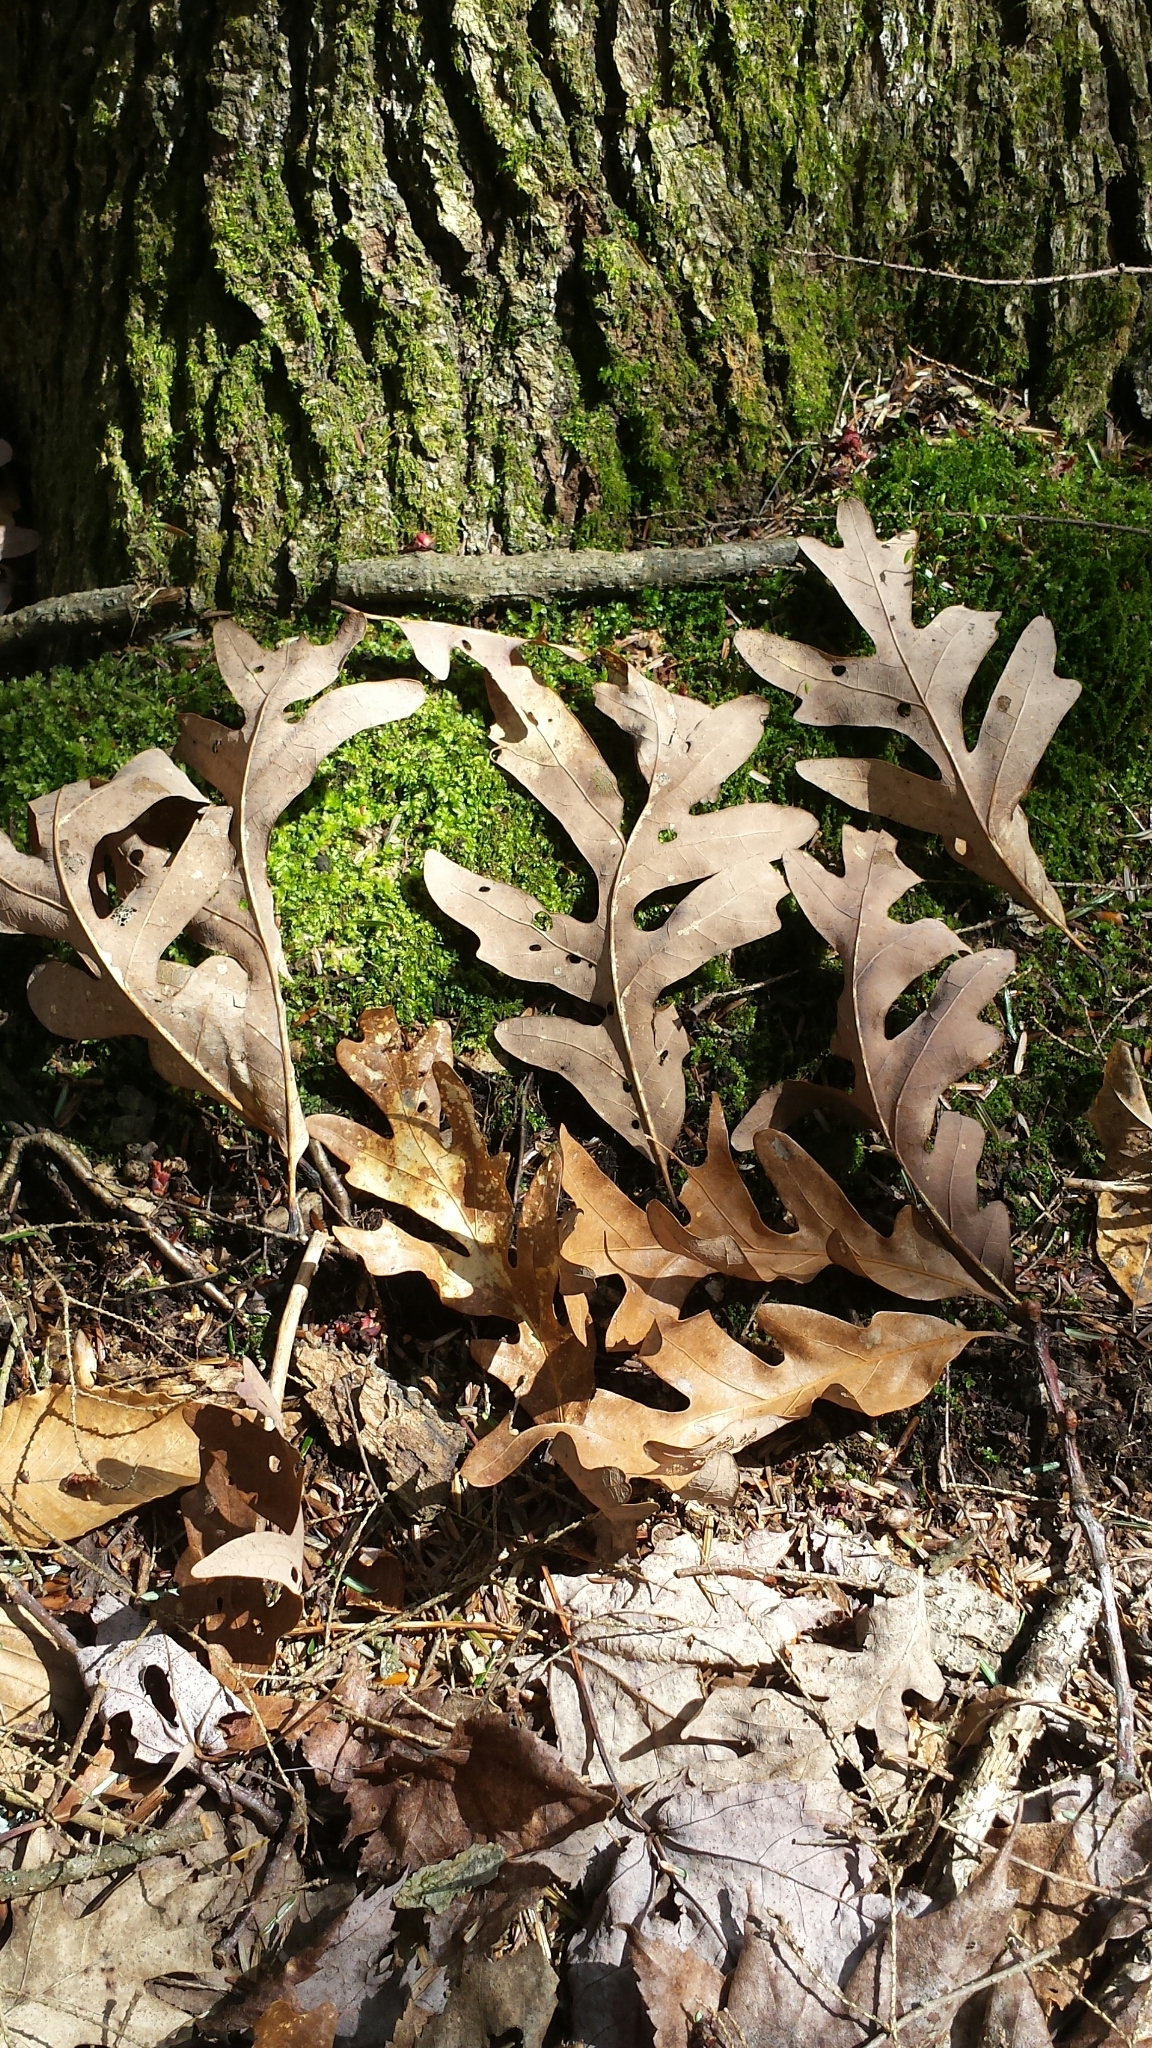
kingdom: Plantae
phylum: Tracheophyta
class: Magnoliopsida
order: Fagales
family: Fagaceae
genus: Quercus
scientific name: Quercus alba
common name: White oak
